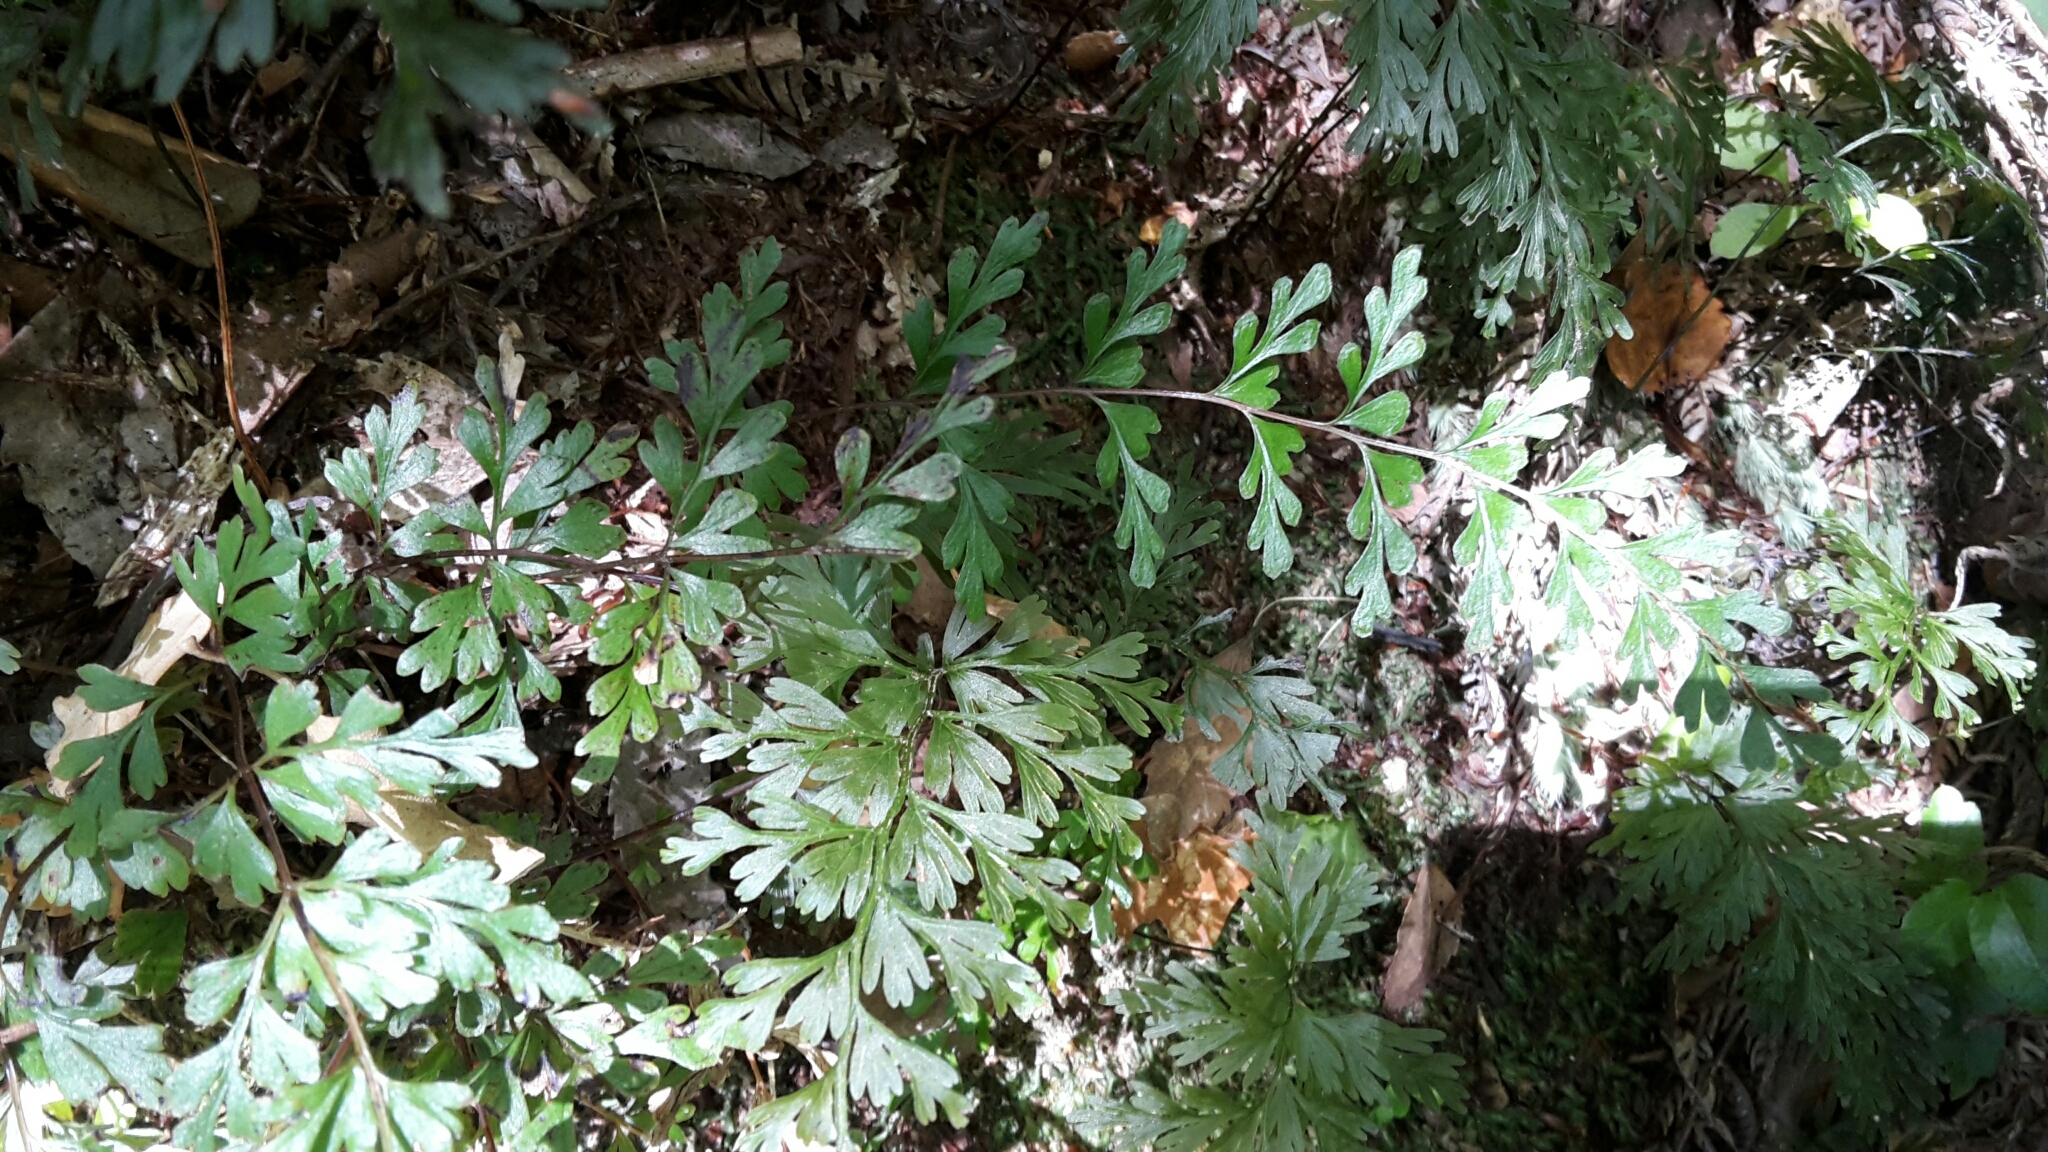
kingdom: Plantae
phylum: Tracheophyta
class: Polypodiopsida
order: Polypodiales
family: Lindsaeaceae
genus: Lindsaea
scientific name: Lindsaea trichomanoides
